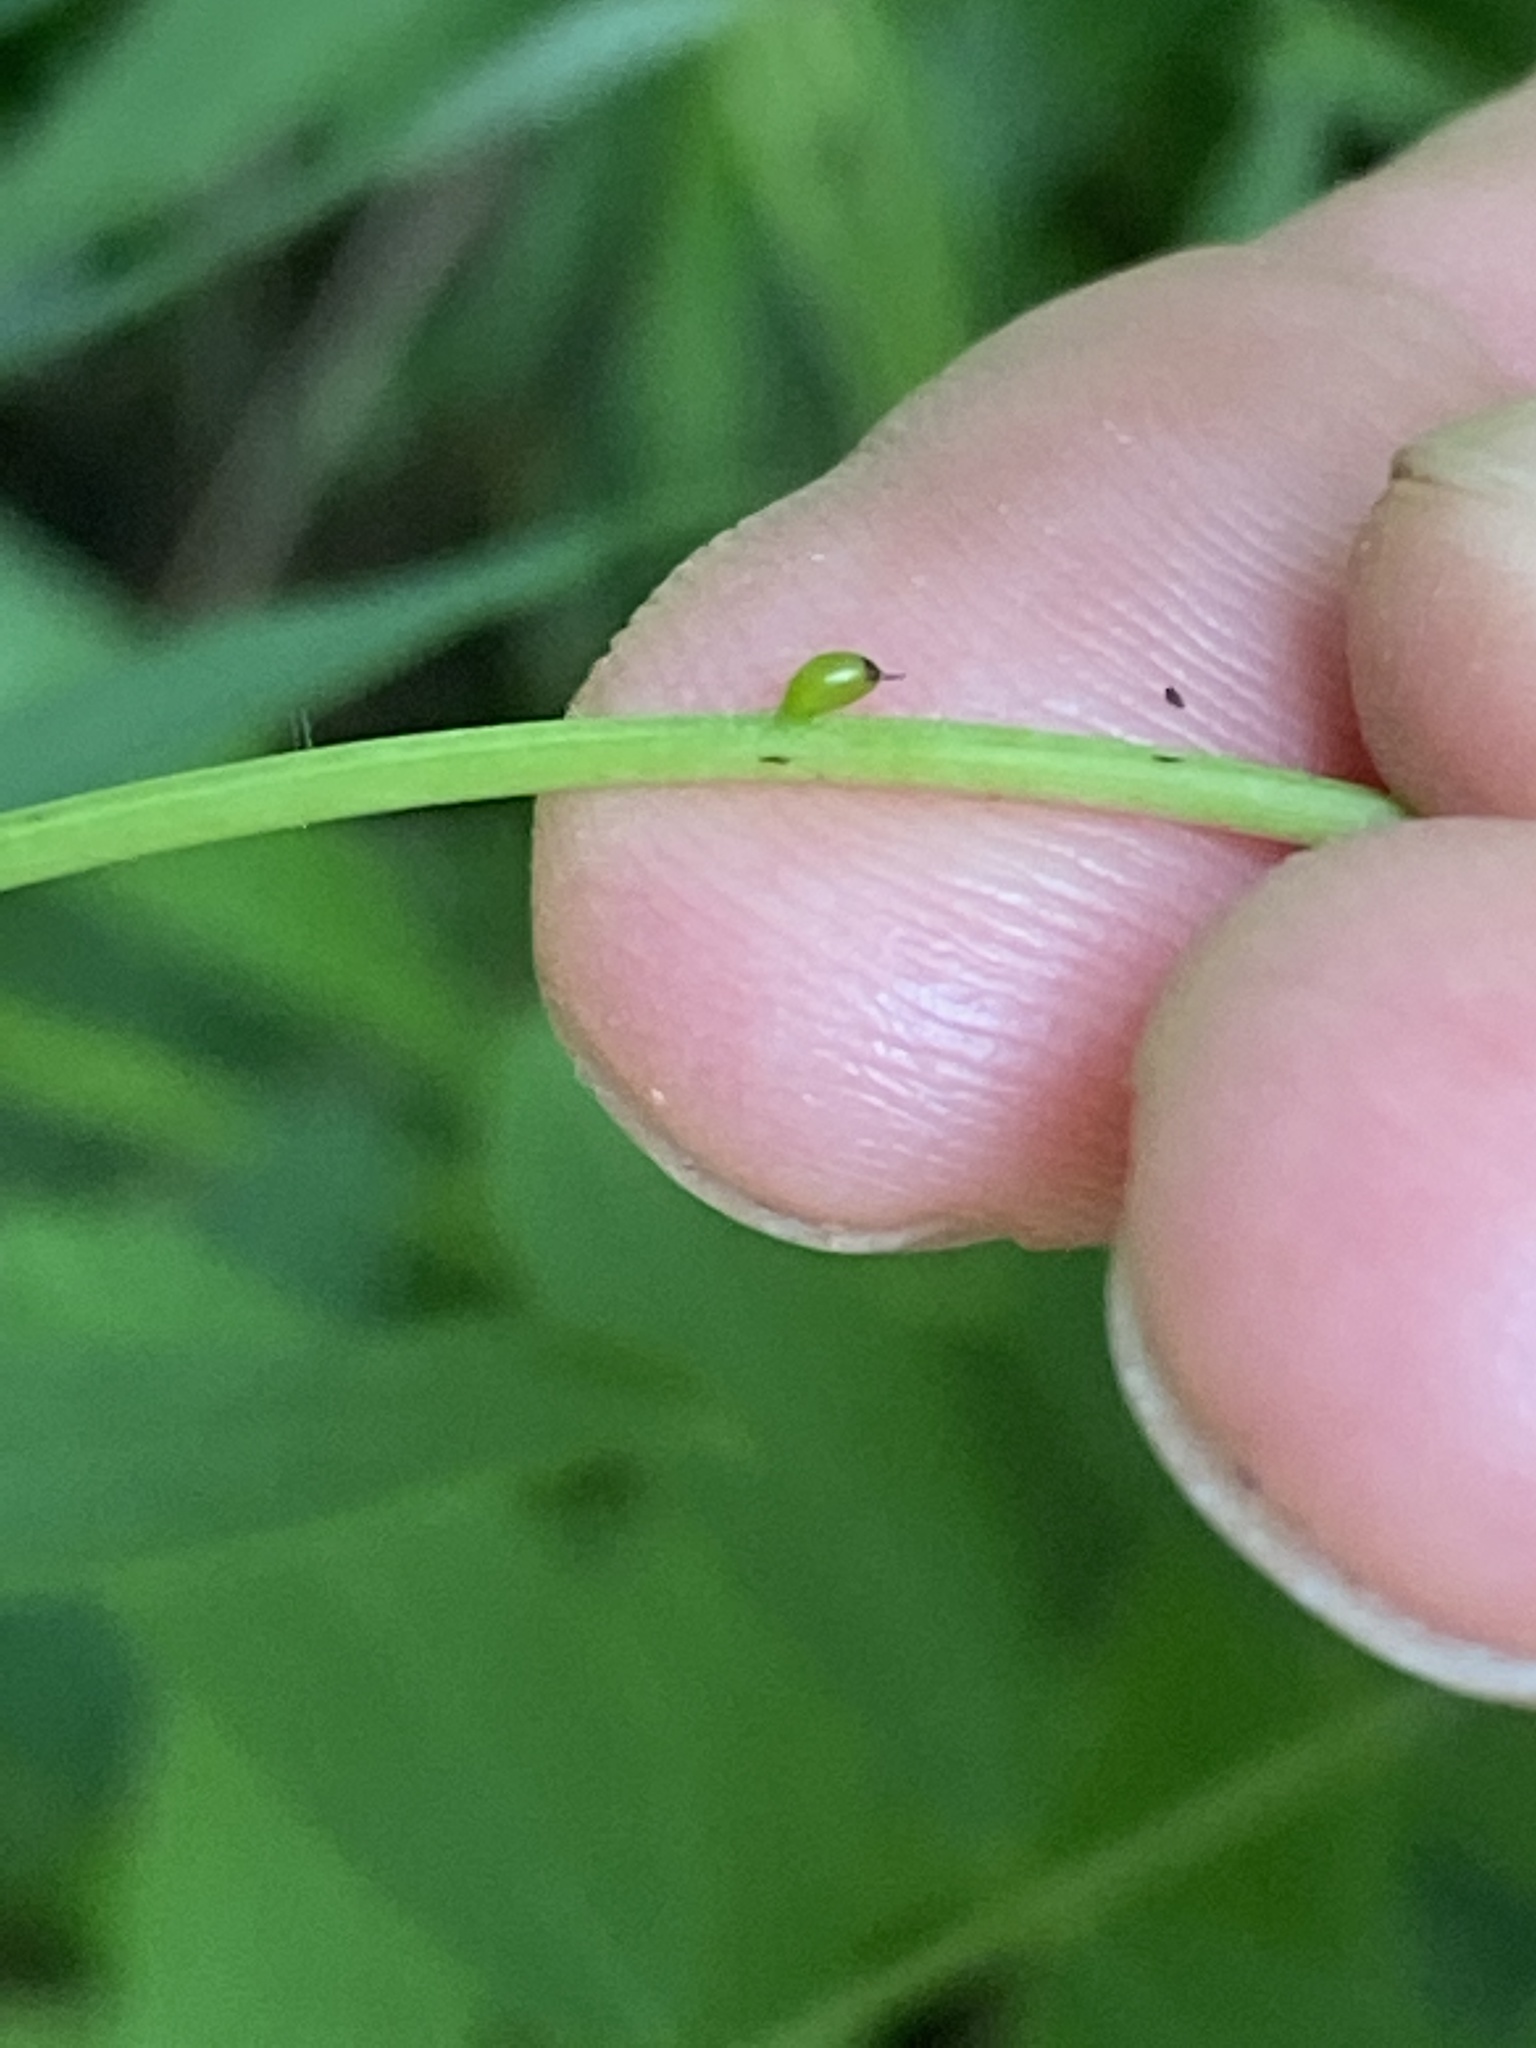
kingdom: Plantae
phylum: Tracheophyta
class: Magnoliopsida
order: Fabales
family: Fabaceae
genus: Senna
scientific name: Senna hebecarpa
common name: Wild senna
